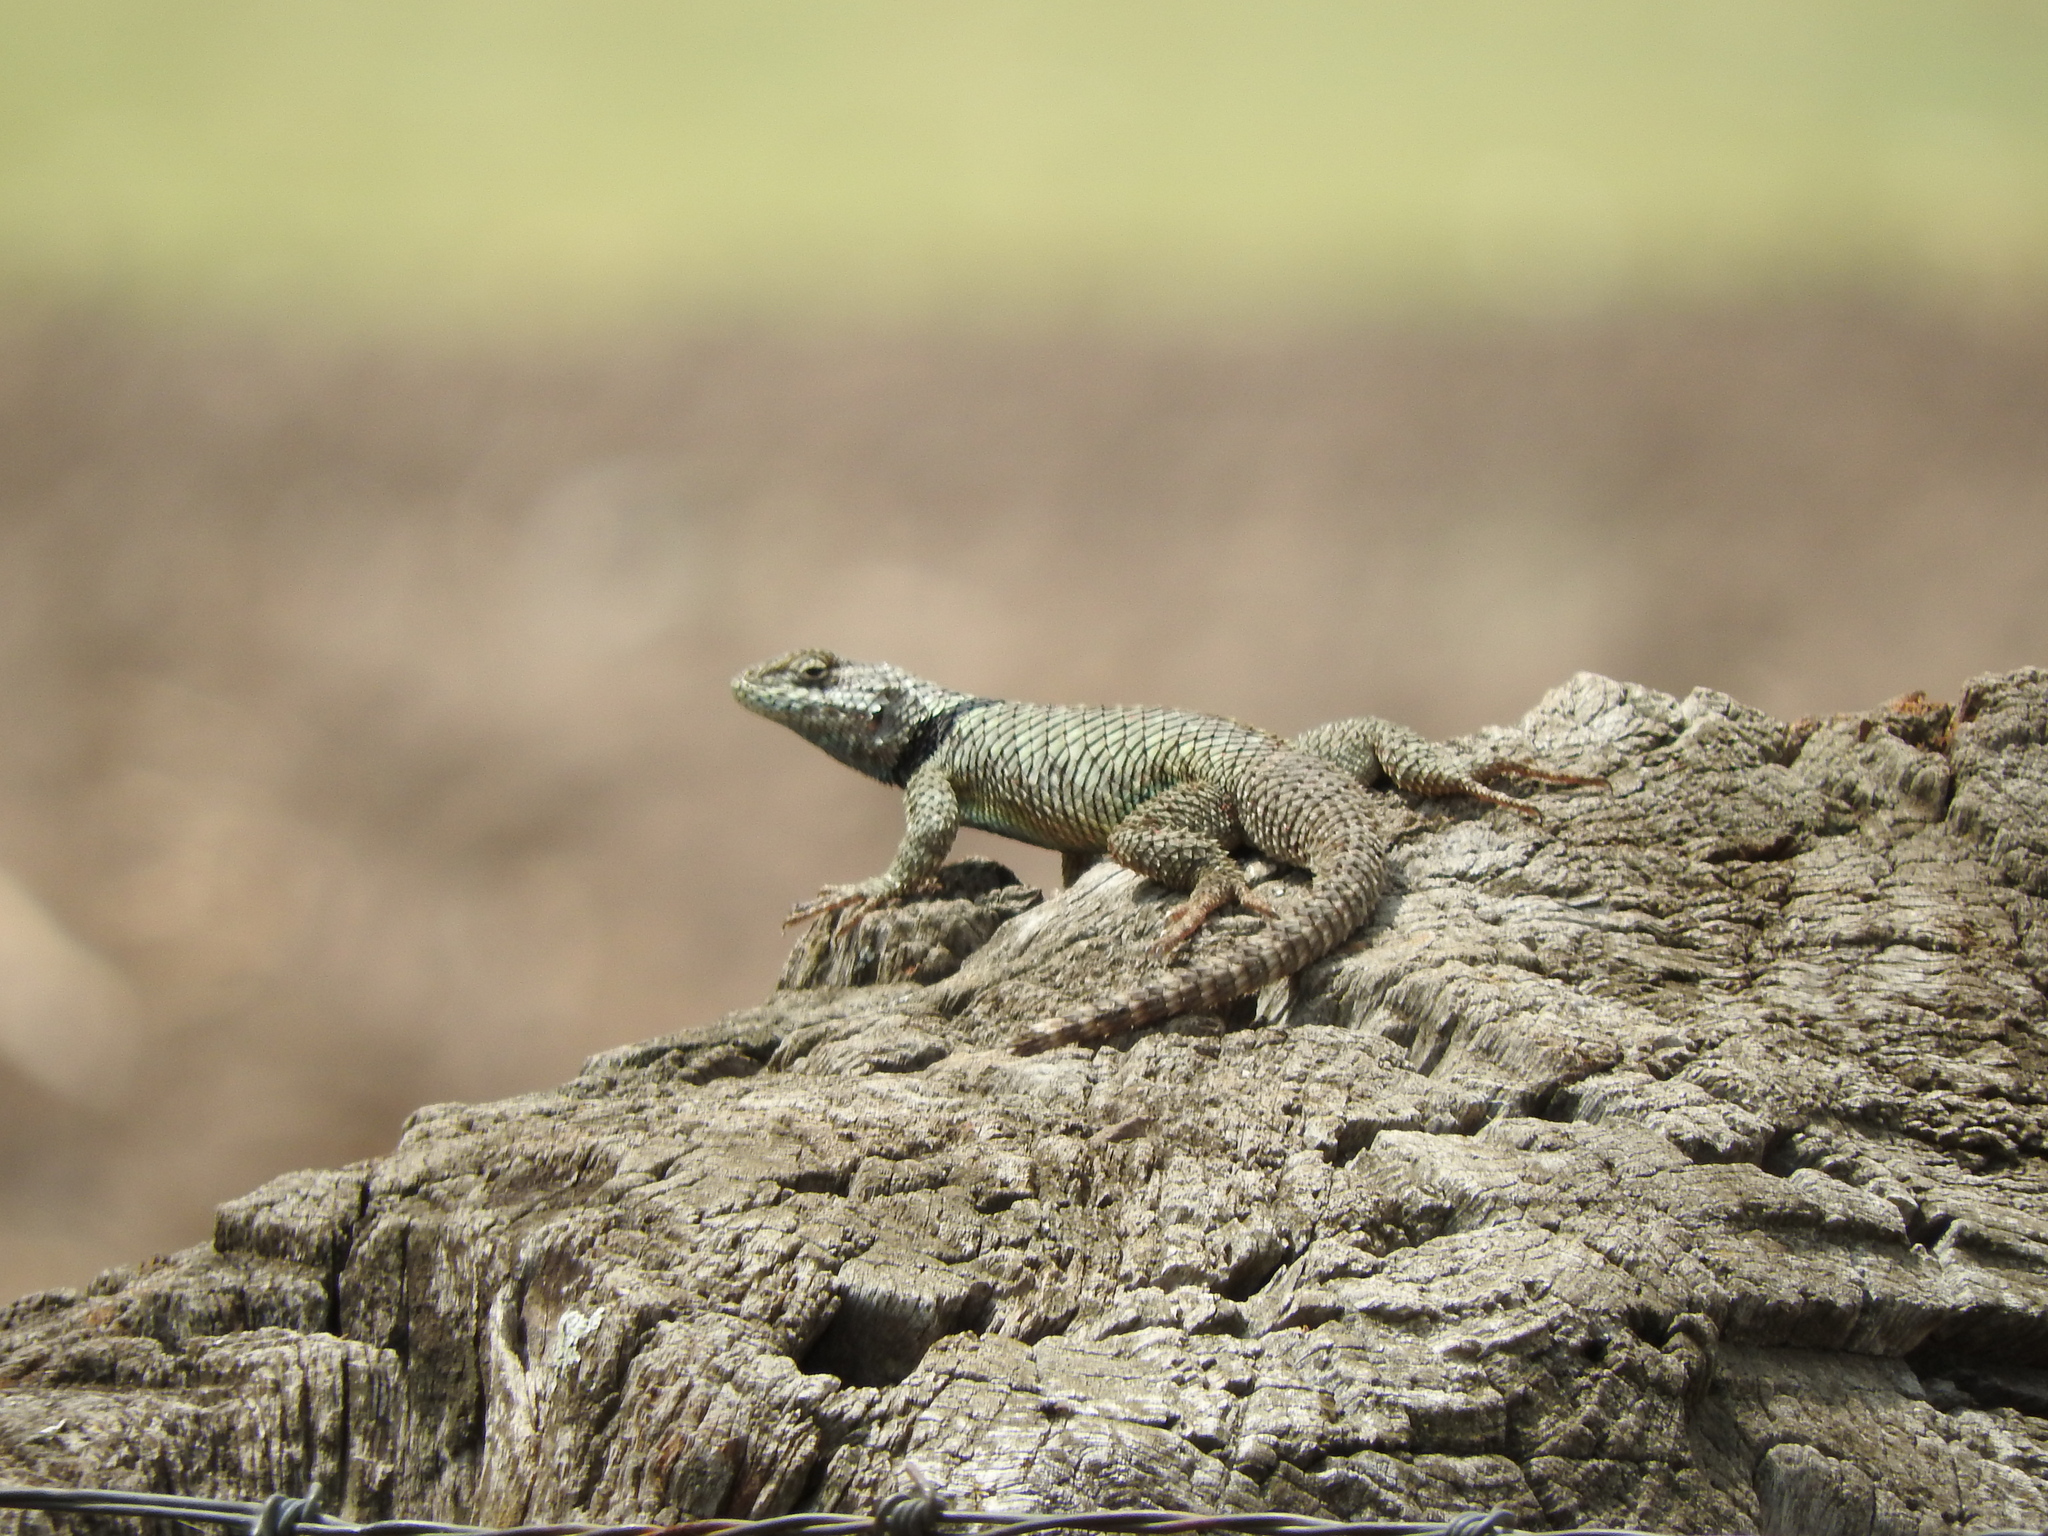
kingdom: Animalia
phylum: Chordata
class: Squamata
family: Phrynosomatidae
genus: Sceloporus
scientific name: Sceloporus torquatus
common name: Central plateau torquate lizard [melanogaster]
